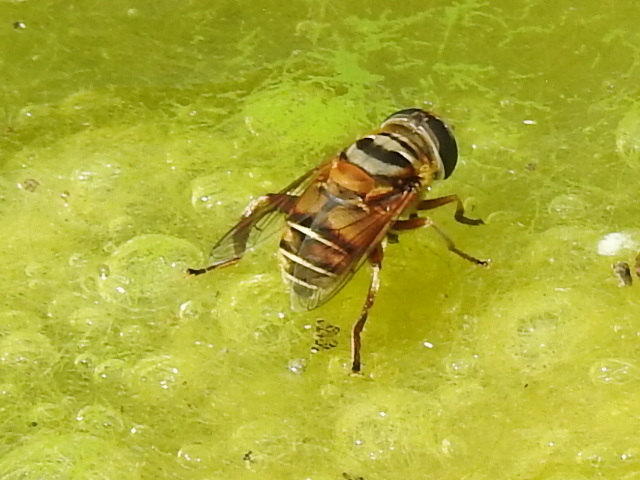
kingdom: Animalia
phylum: Arthropoda
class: Insecta
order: Diptera
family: Syrphidae
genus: Palpada
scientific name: Palpada vinetorum
